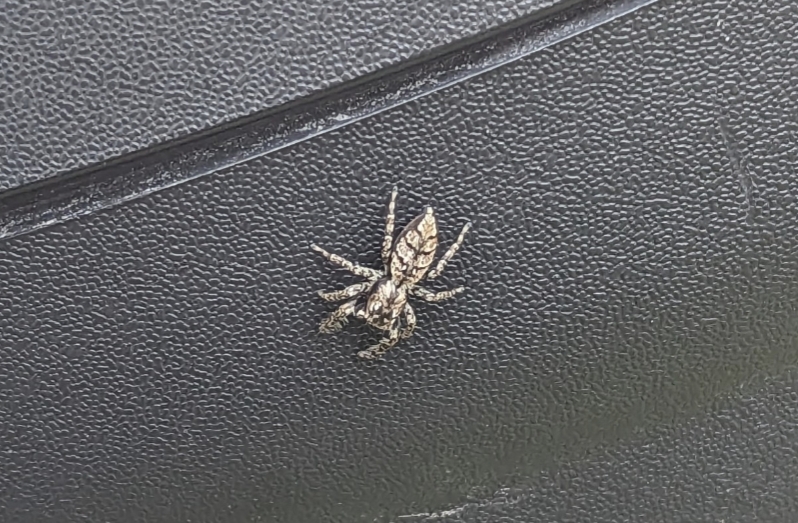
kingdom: Animalia
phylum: Arthropoda
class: Arachnida
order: Araneae
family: Salticidae
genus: Marpissa
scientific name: Marpissa muscosa
